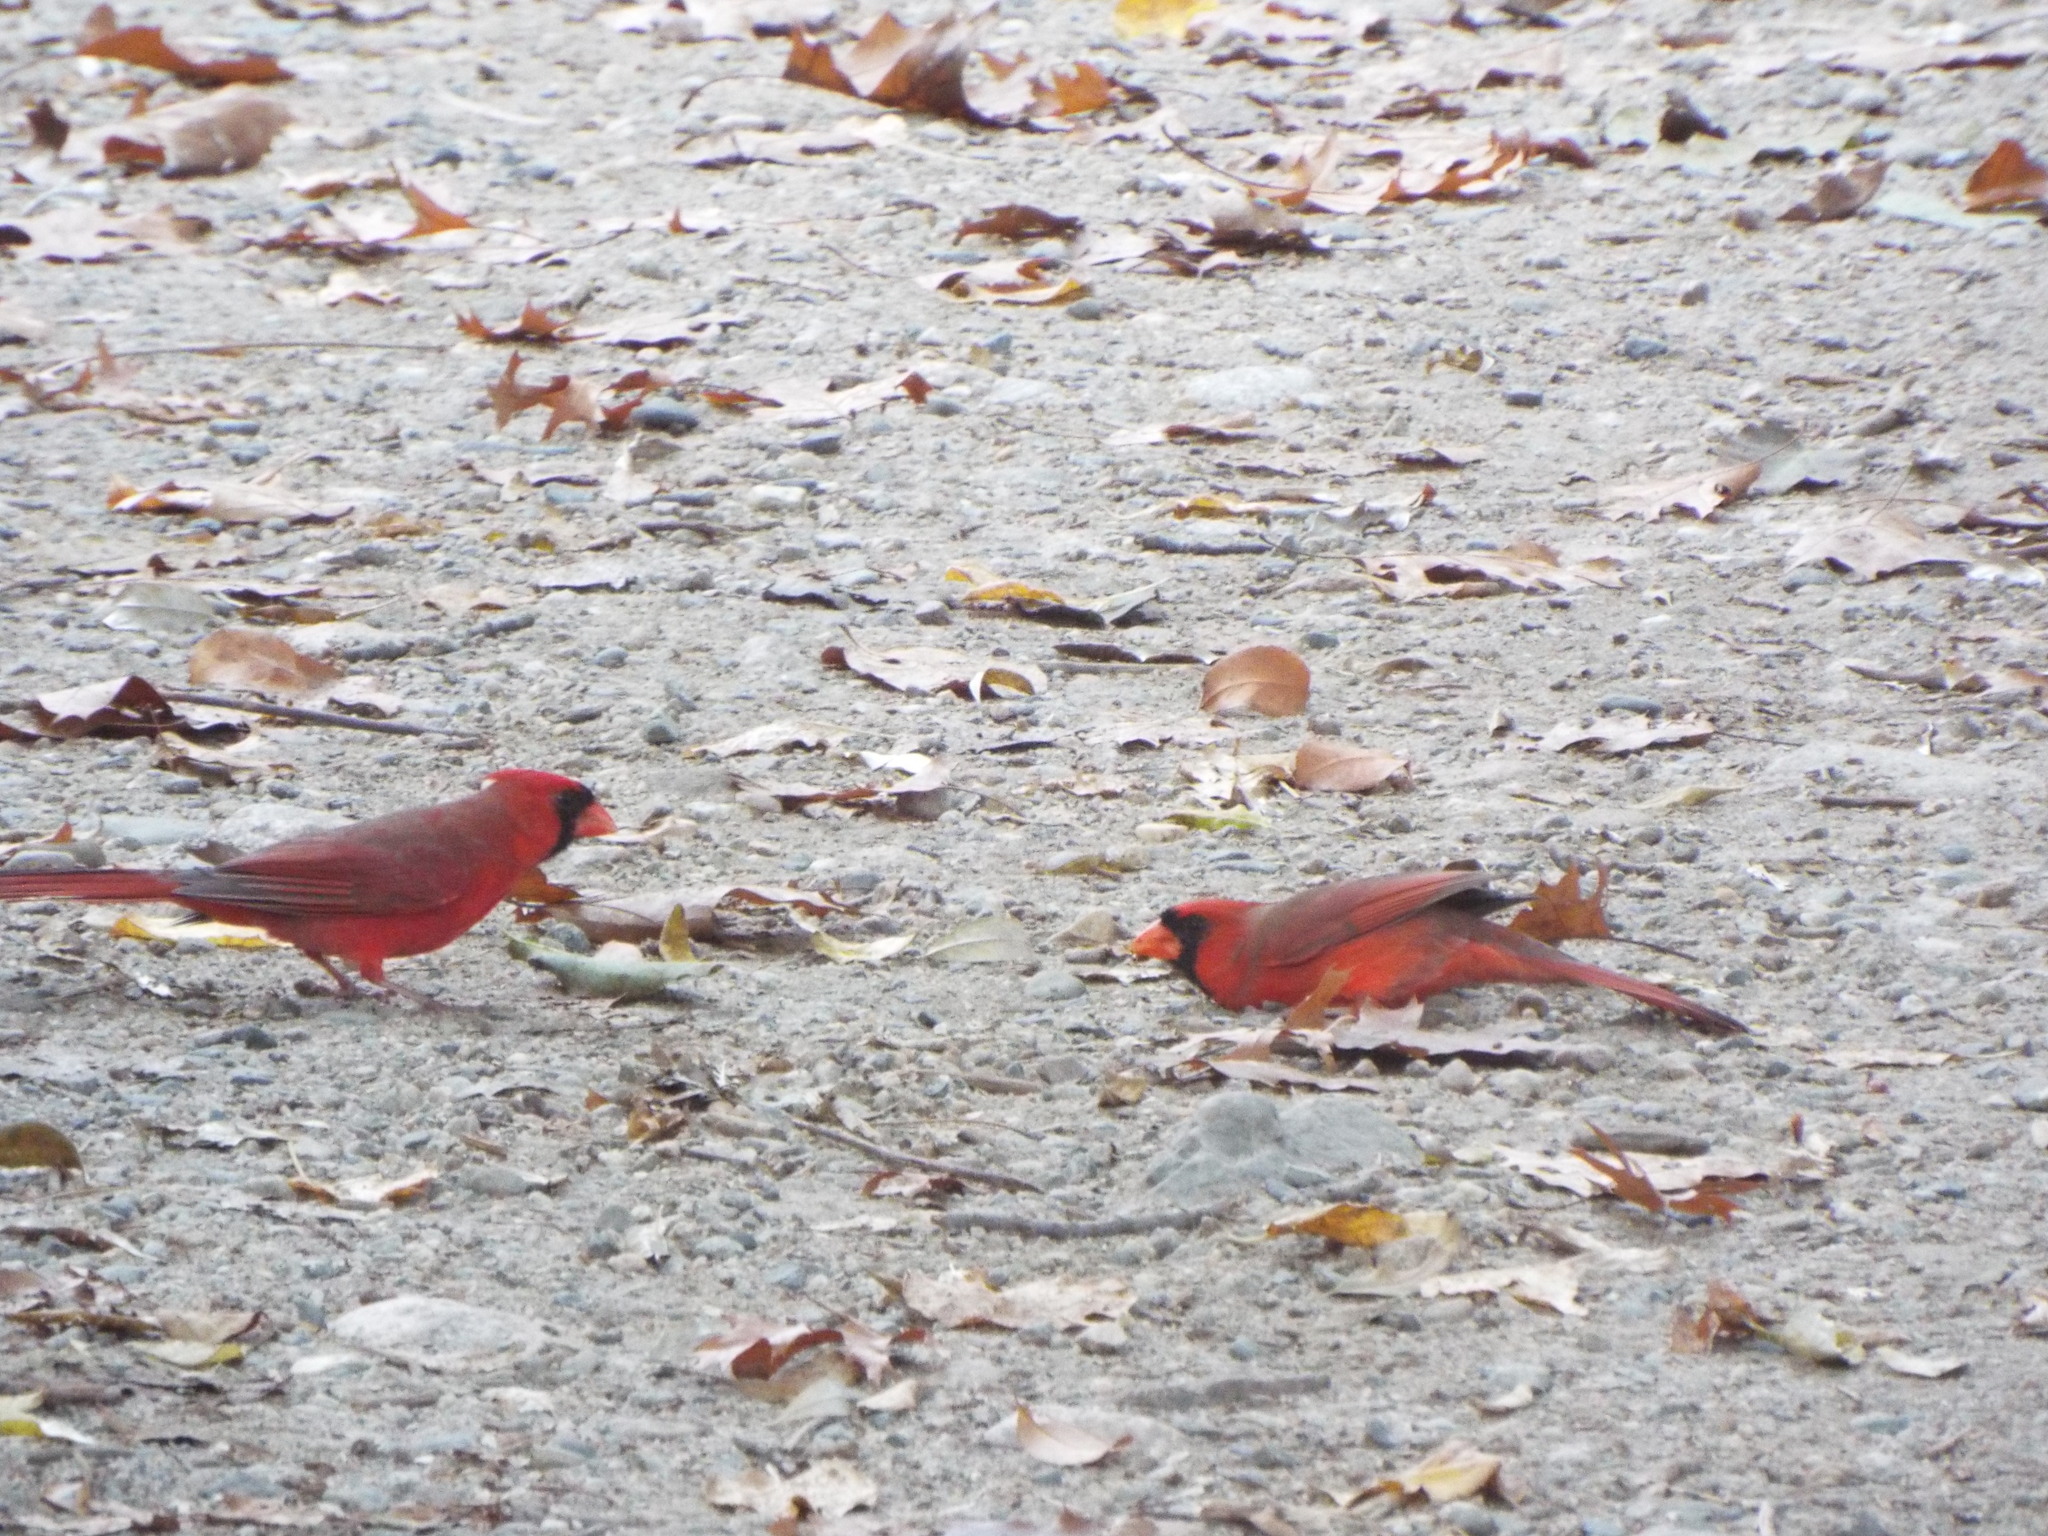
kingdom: Animalia
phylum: Chordata
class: Aves
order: Passeriformes
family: Cardinalidae
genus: Cardinalis
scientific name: Cardinalis cardinalis
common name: Northern cardinal
